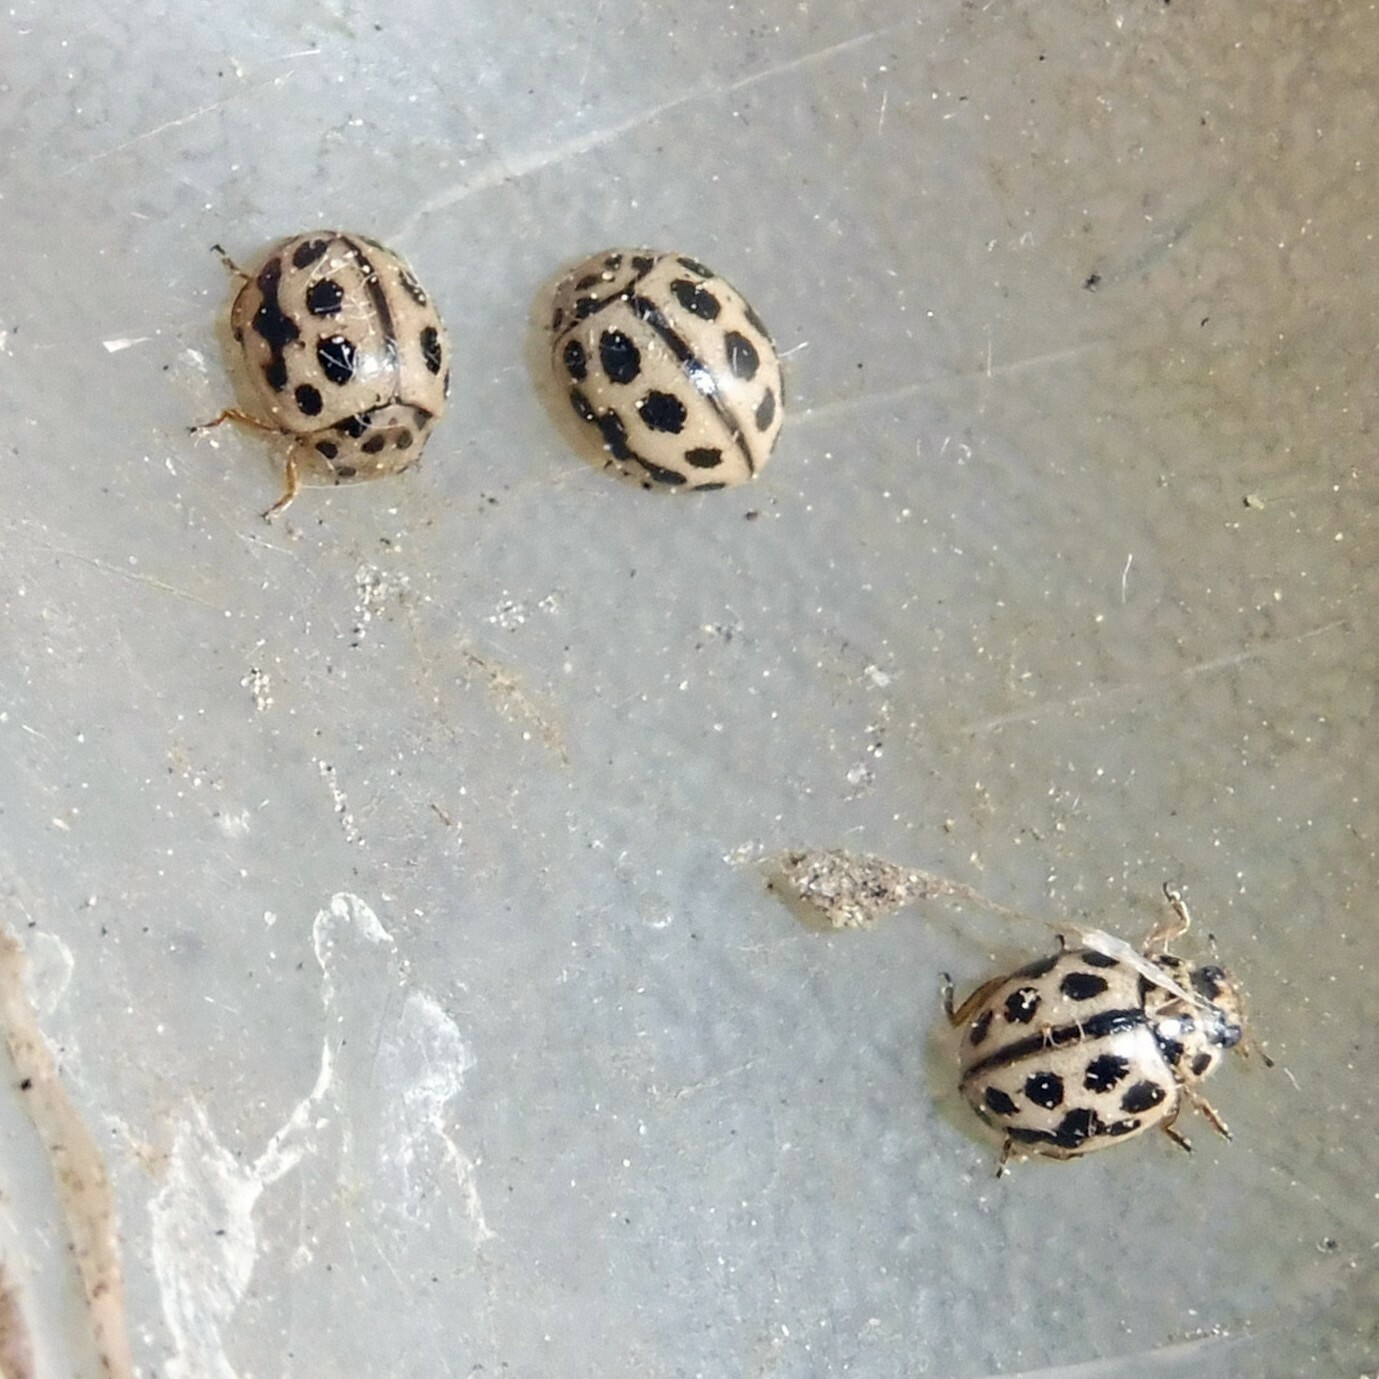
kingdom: Animalia
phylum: Arthropoda
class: Insecta
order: Coleoptera
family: Coccinellidae
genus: Tytthaspis
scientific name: Tytthaspis sedecimpunctata
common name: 16-spot ladybird
